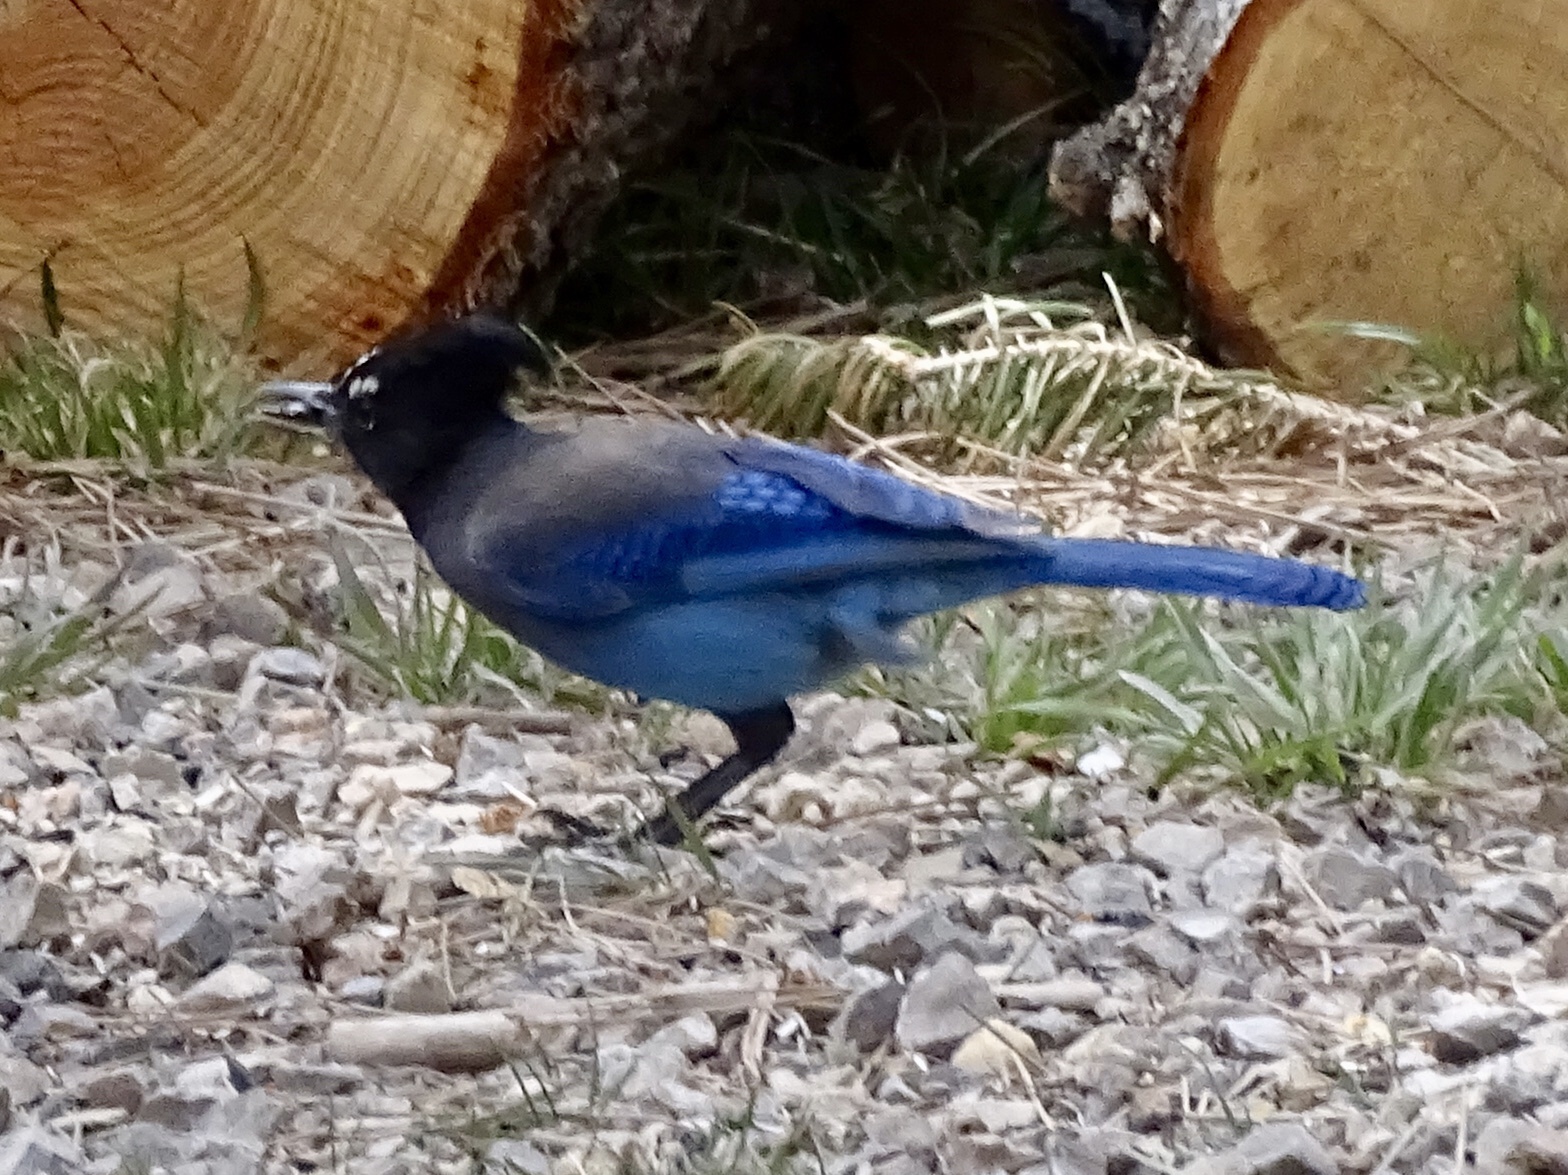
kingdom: Animalia
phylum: Chordata
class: Aves
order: Passeriformes
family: Corvidae
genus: Cyanocitta
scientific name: Cyanocitta stelleri
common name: Steller's jay
